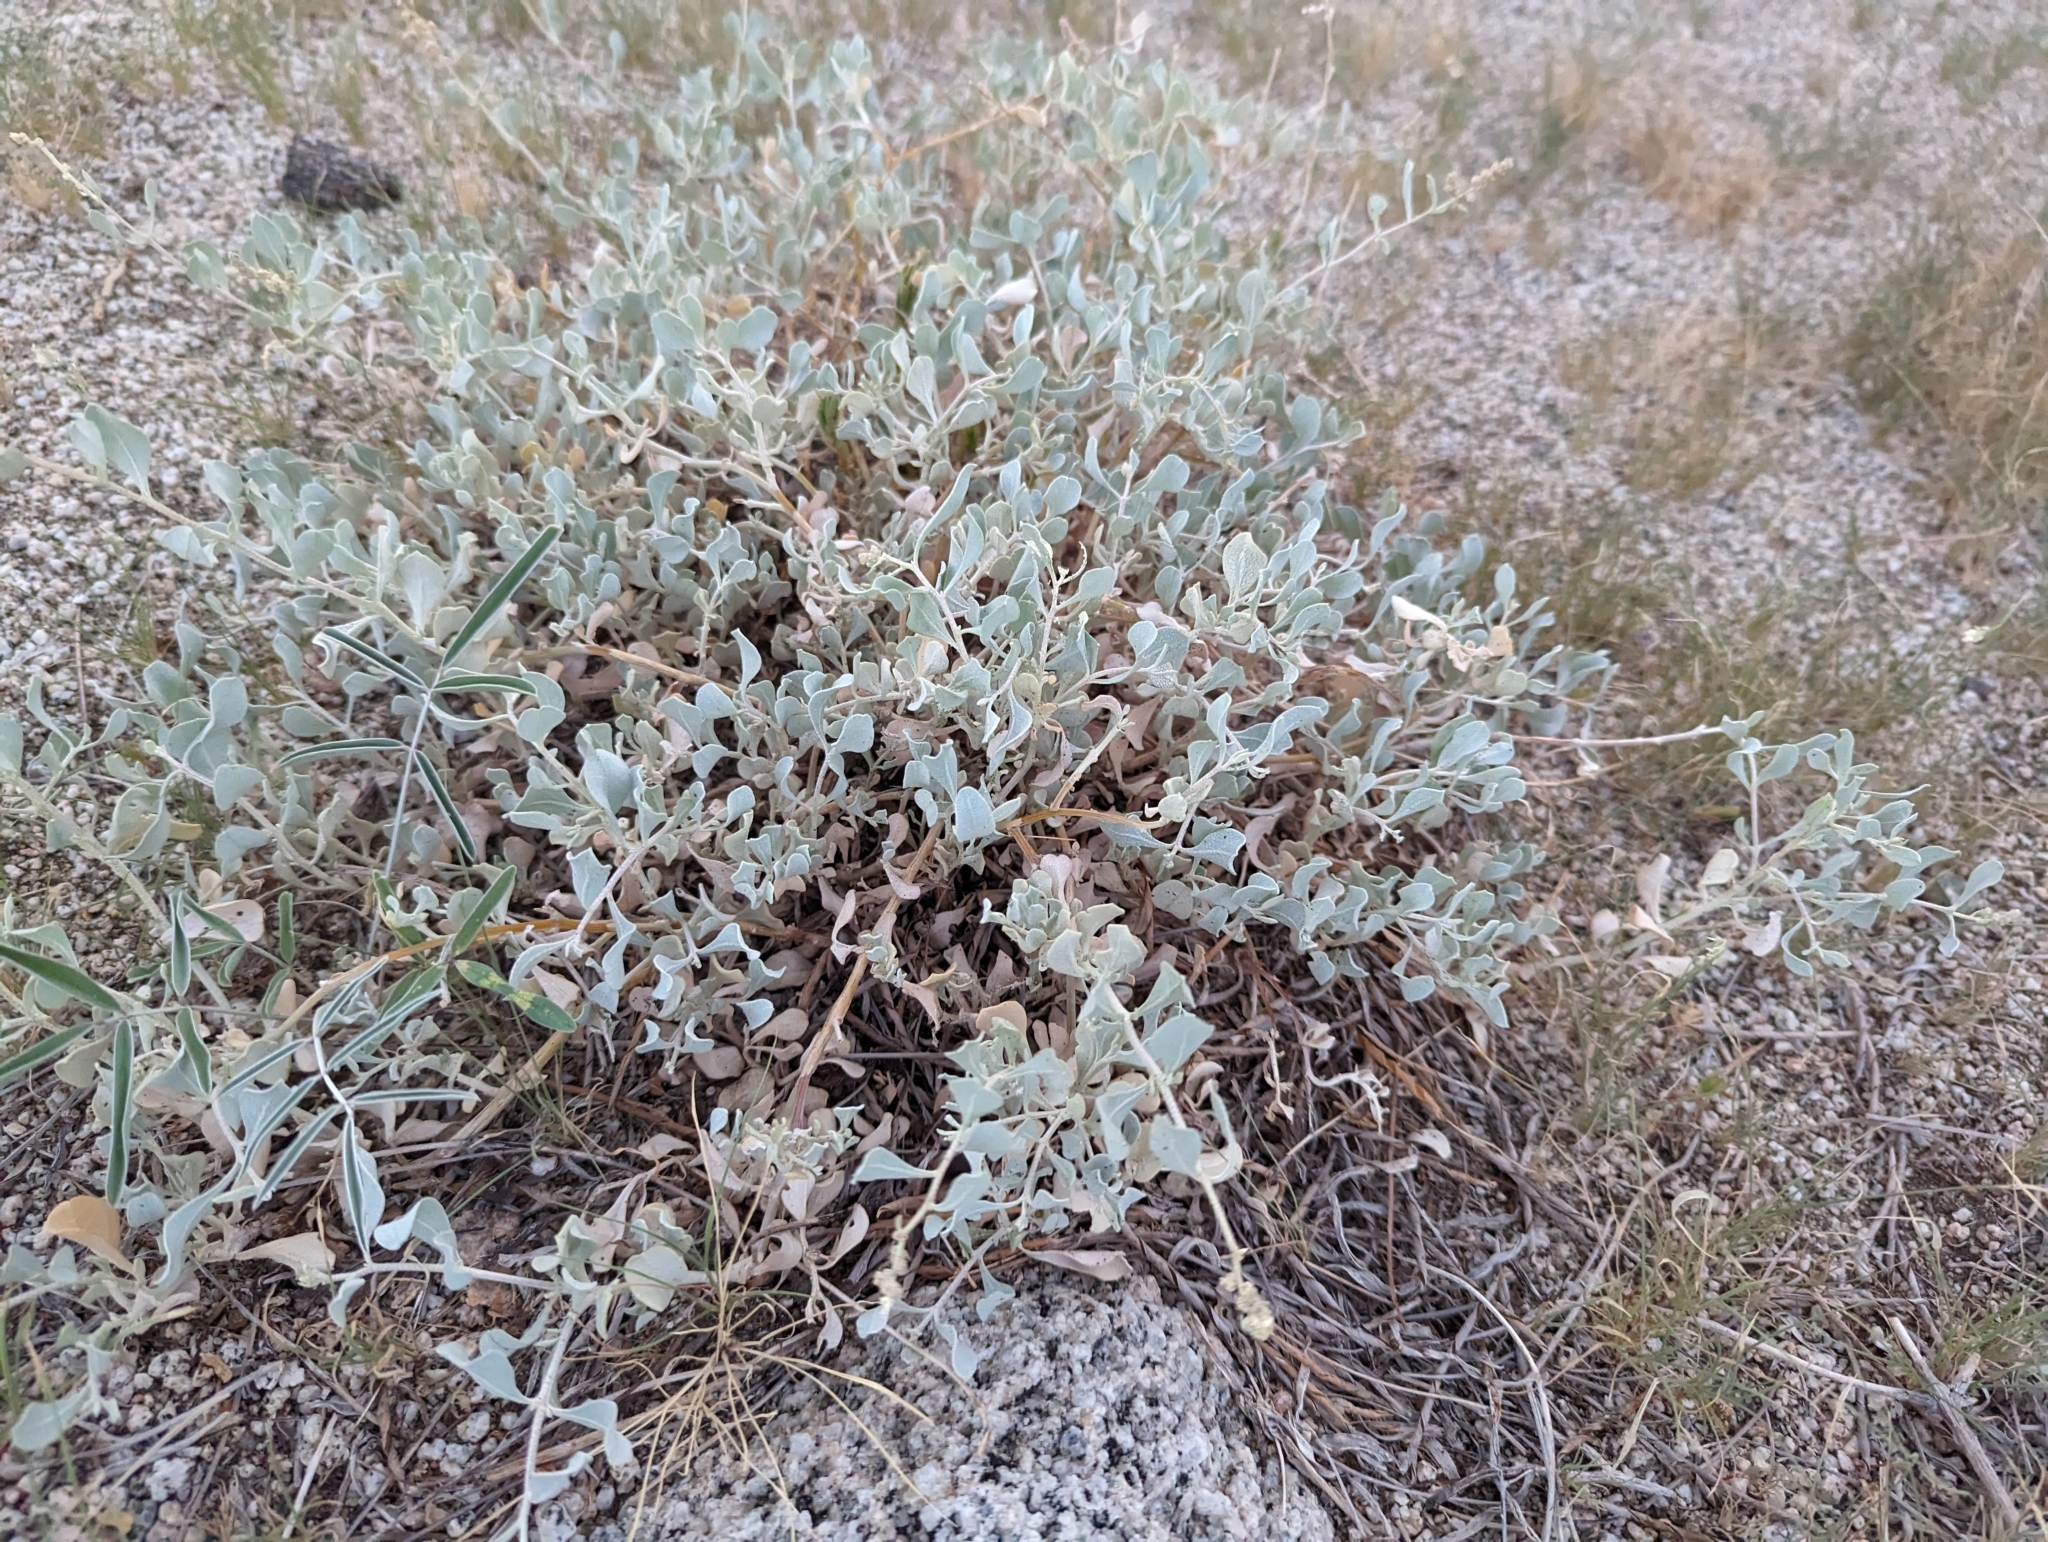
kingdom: Plantae
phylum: Tracheophyta
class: Magnoliopsida
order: Caryophyllales
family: Amaranthaceae
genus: Atriplex
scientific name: Atriplex barclayana
